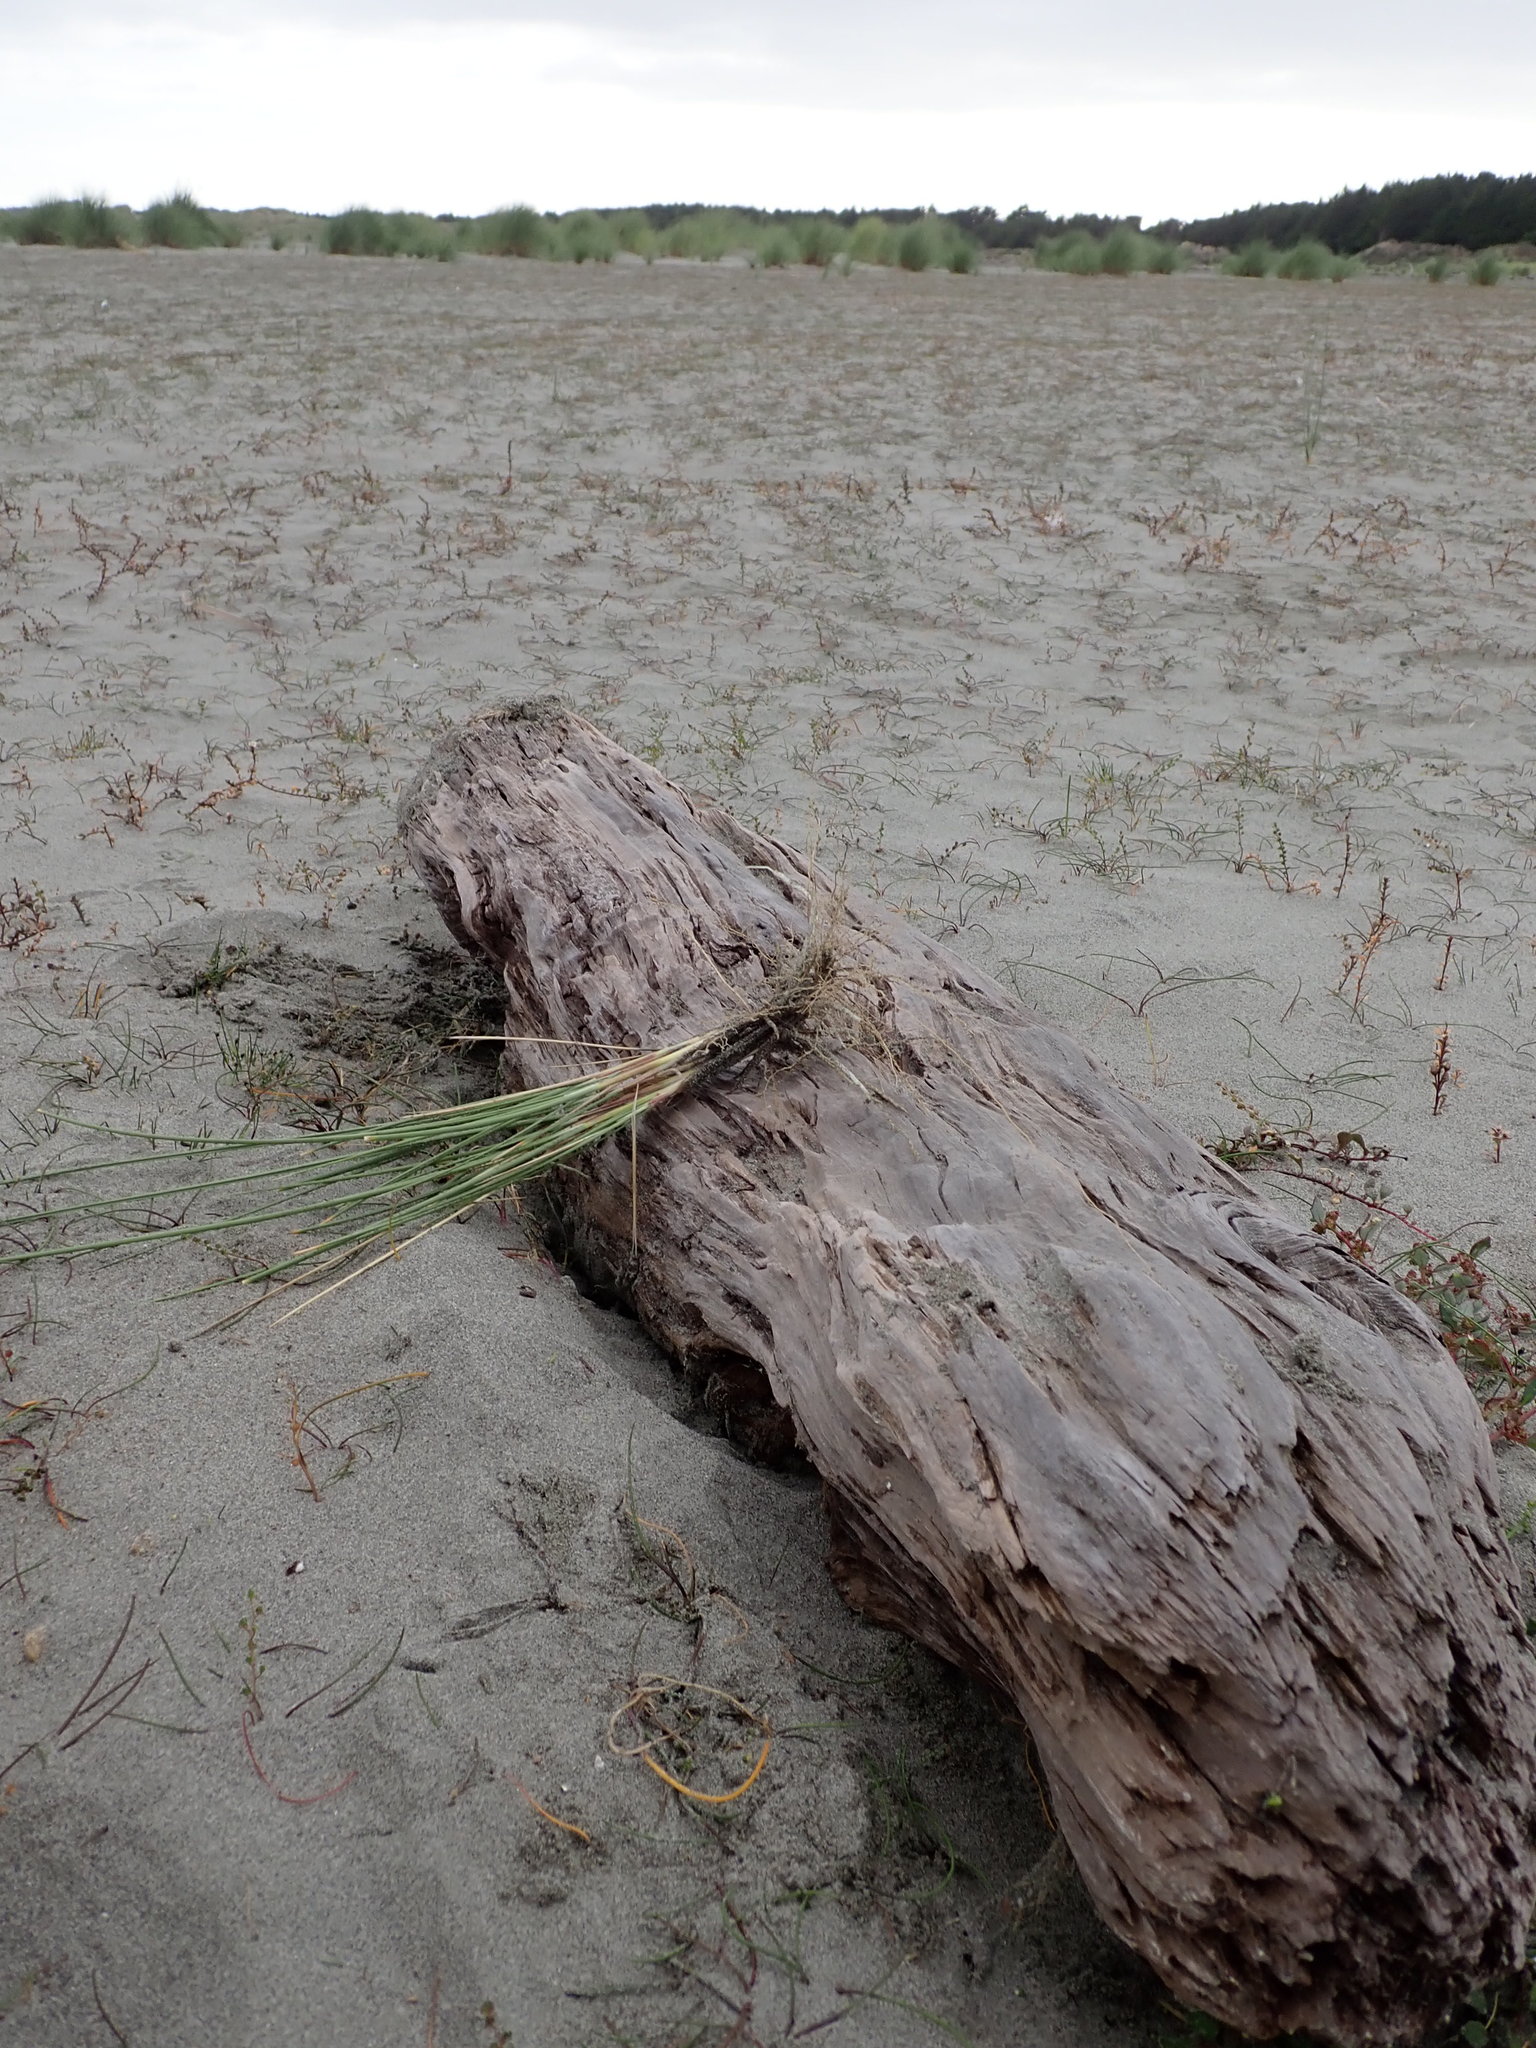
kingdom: Animalia
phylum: Arthropoda
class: Arachnida
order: Araneae
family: Lycosidae
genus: Anoteropsis
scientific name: Anoteropsis litoralis
